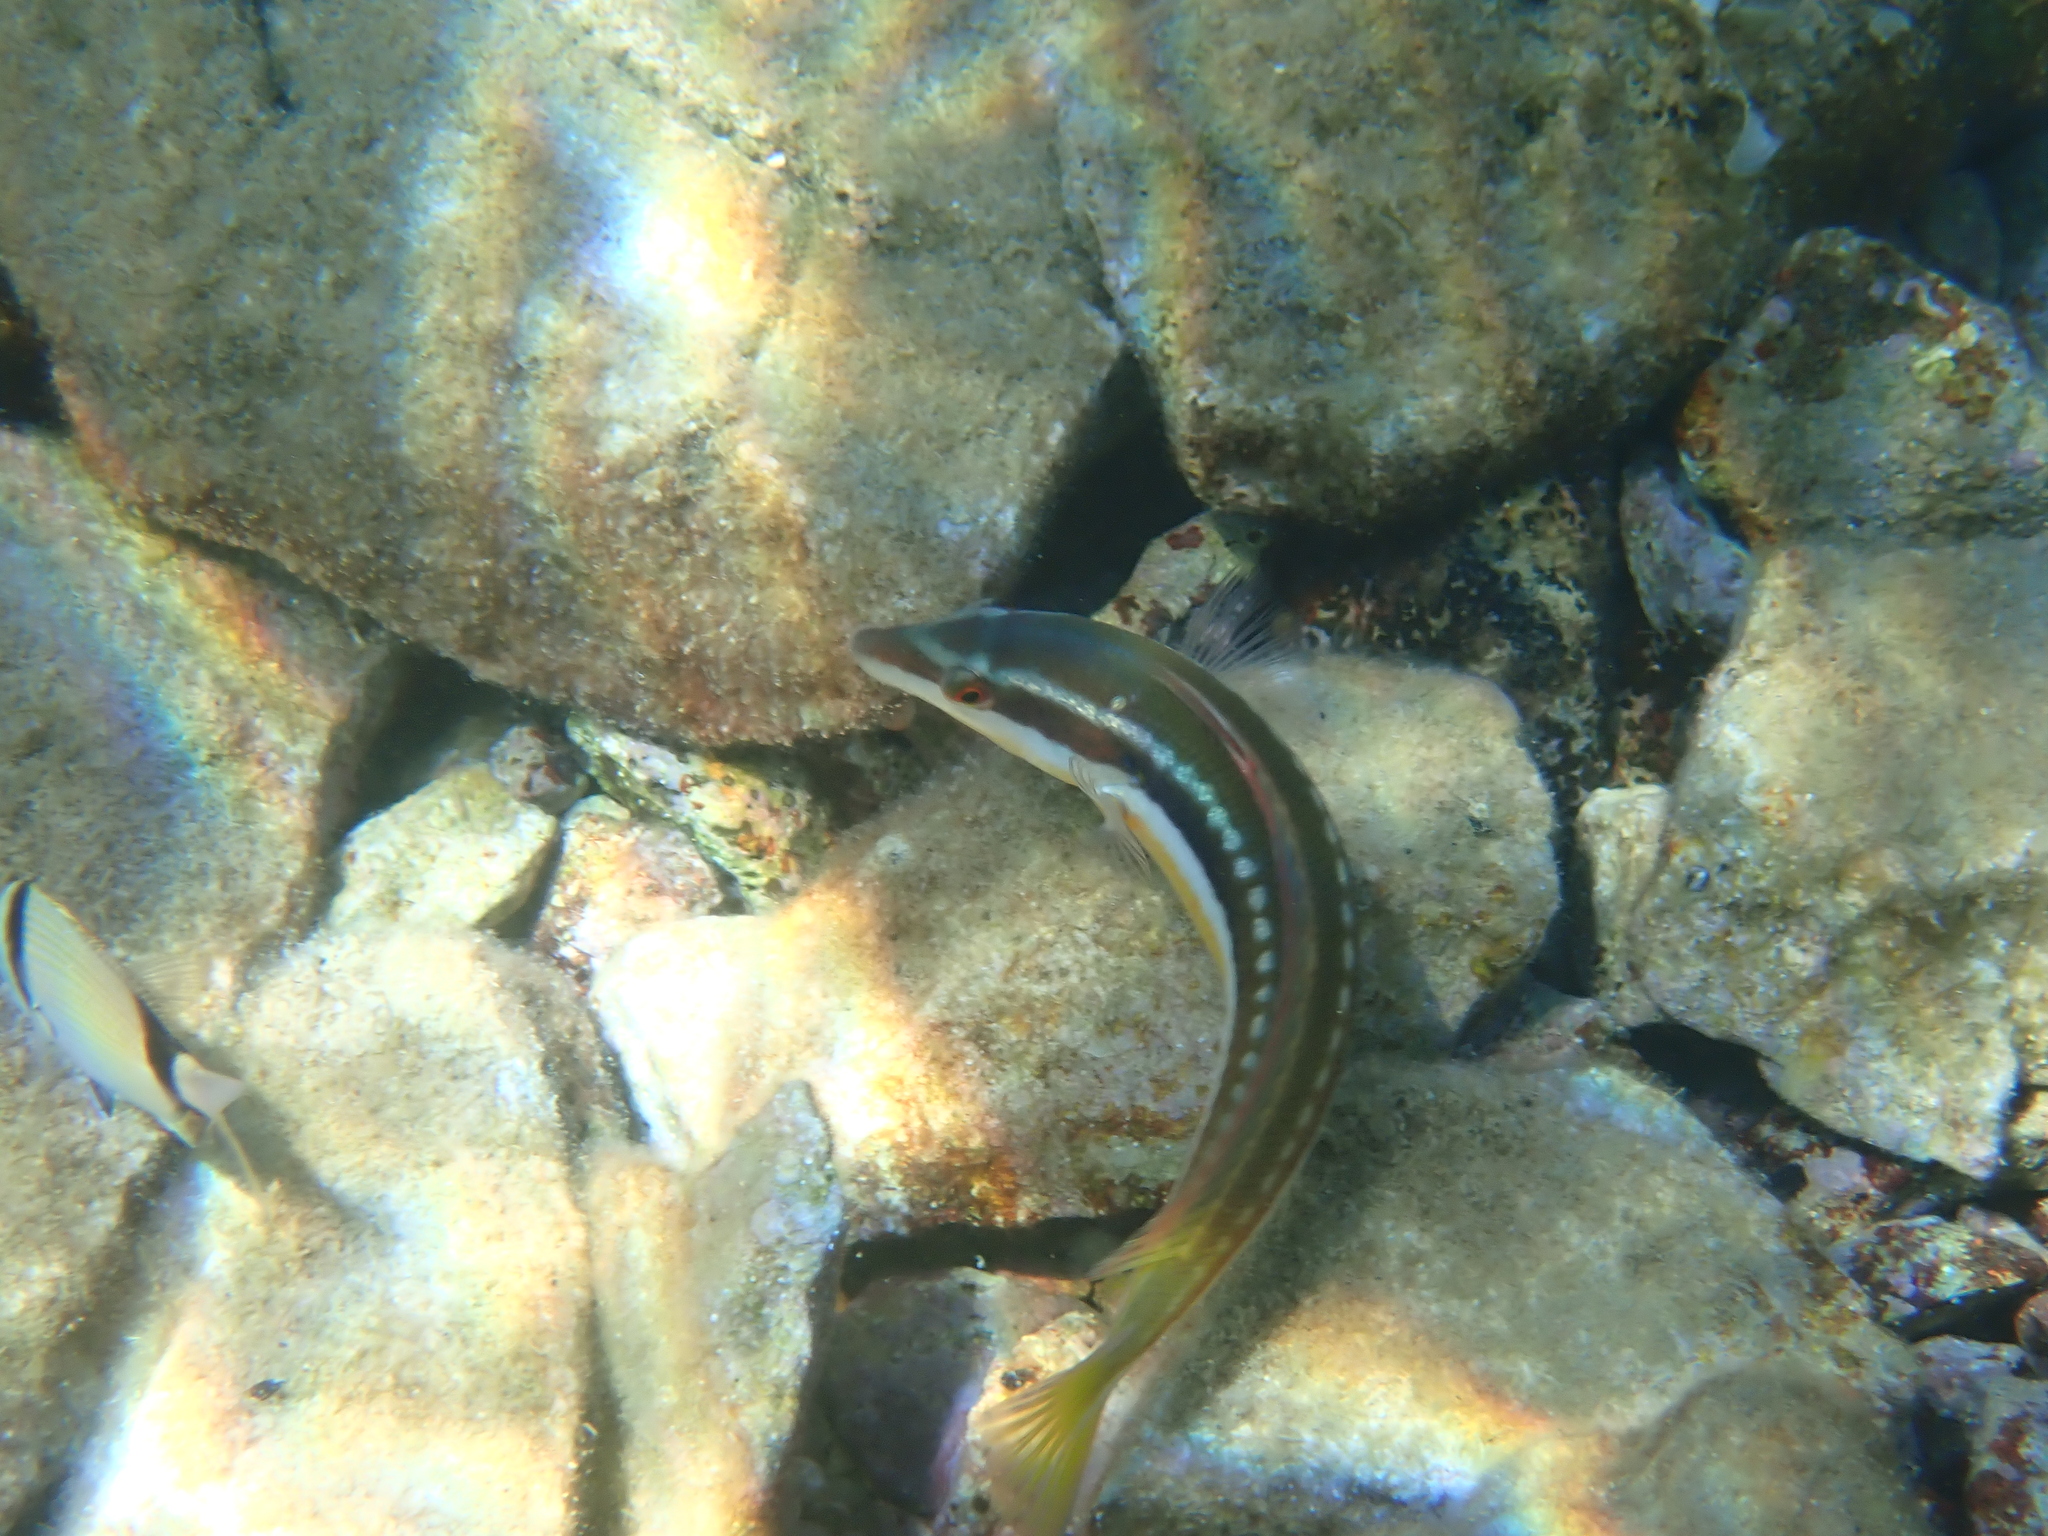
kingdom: Animalia
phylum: Chordata
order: Perciformes
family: Labridae
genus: Coris
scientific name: Coris julis
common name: Rainbow wrasse
